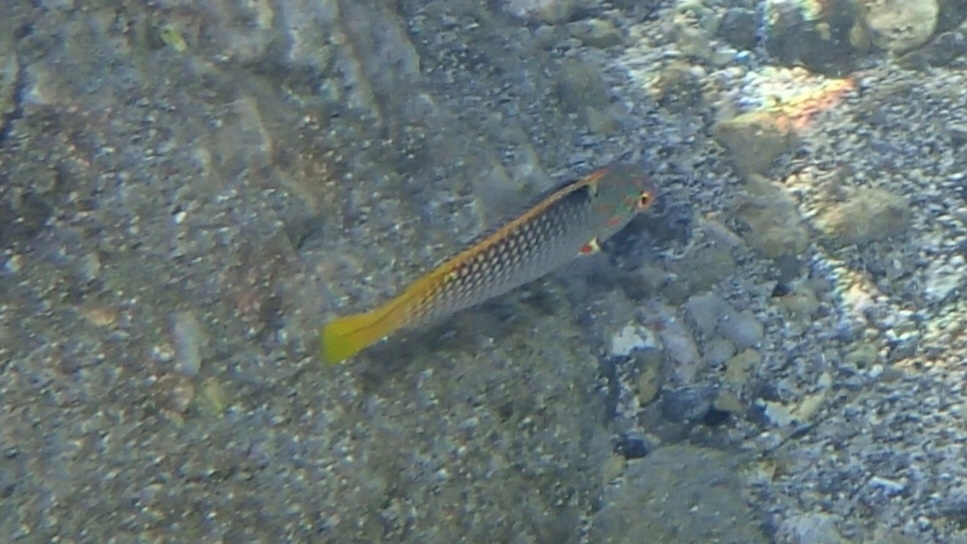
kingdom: Animalia
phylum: Chordata
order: Perciformes
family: Labridae
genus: Halichoeres
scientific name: Halichoeres hortulanus
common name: Checkerboard wrasse
